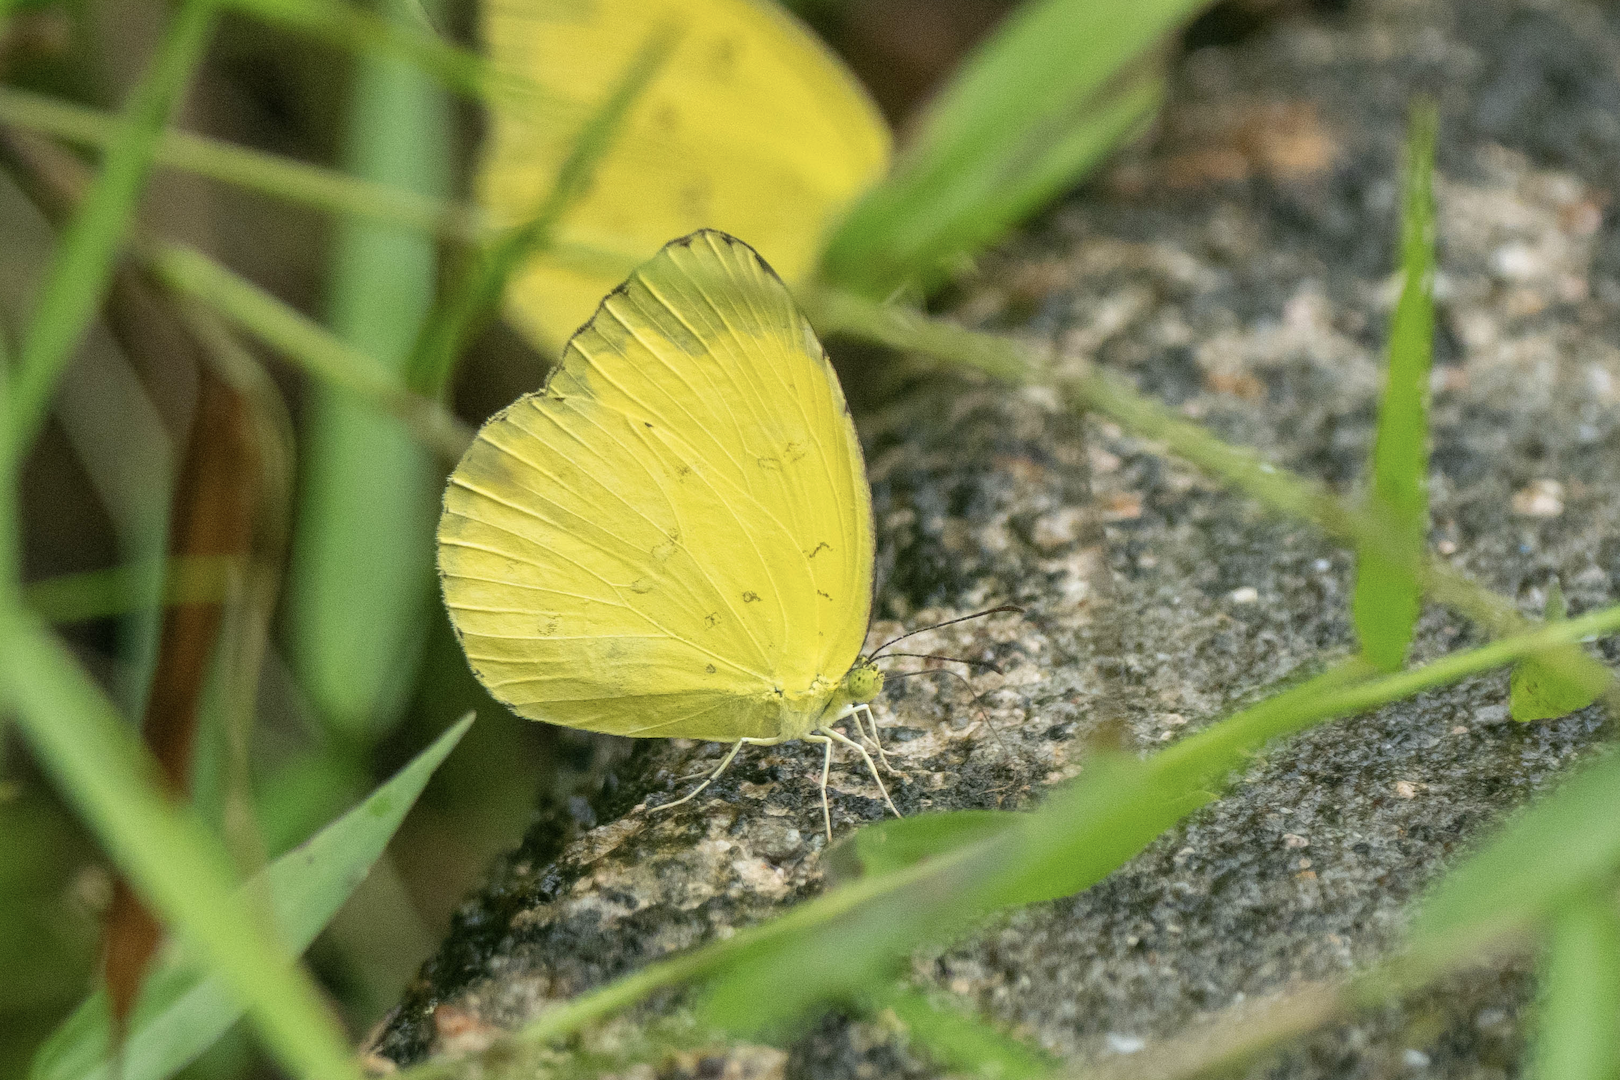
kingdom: Animalia
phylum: Arthropoda
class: Insecta
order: Lepidoptera
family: Pieridae
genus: Eurema
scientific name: Eurema blanda
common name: Three-spot grass yellow
